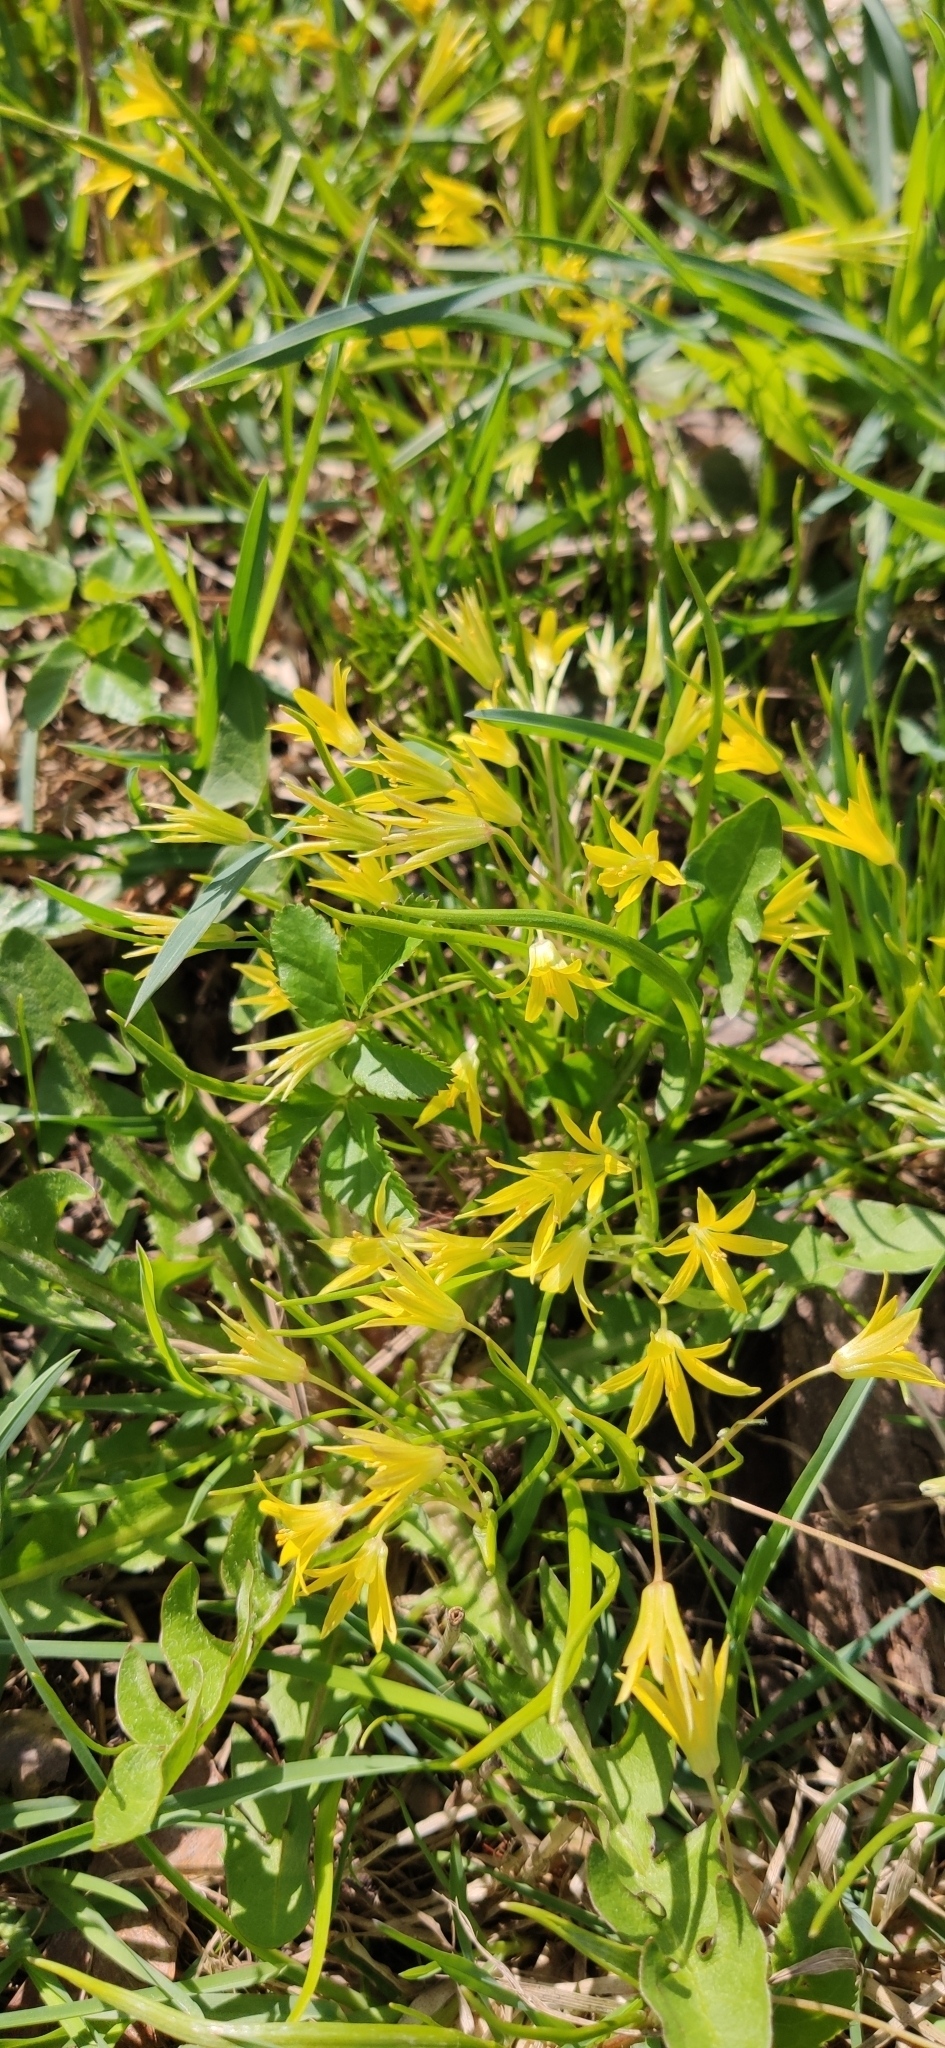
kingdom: Plantae
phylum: Tracheophyta
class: Liliopsida
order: Liliales
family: Liliaceae
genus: Gagea
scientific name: Gagea minima
